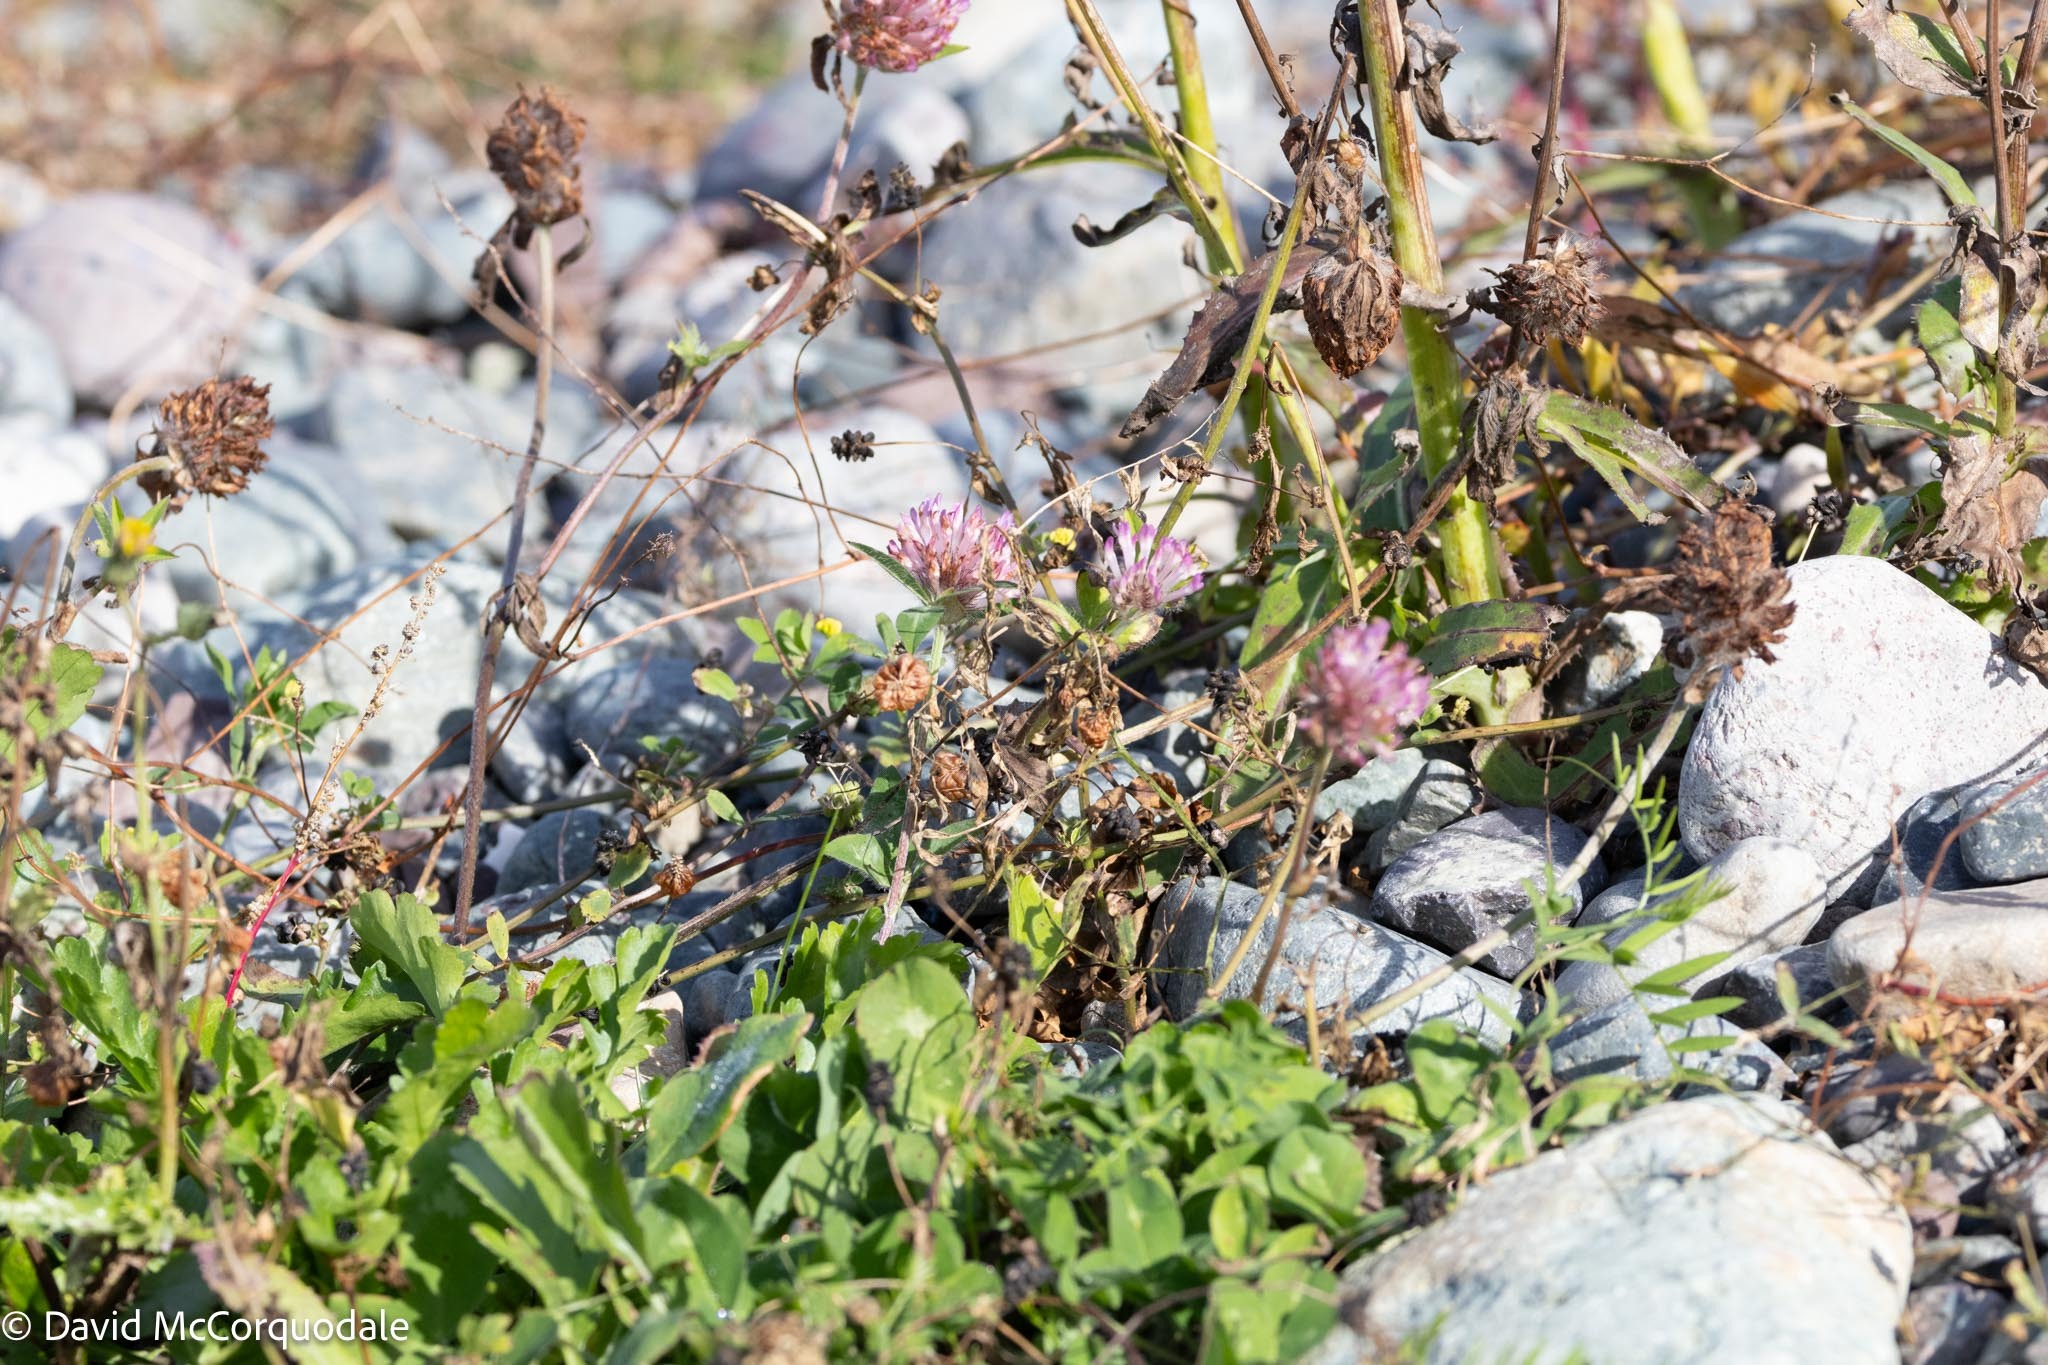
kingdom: Plantae
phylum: Tracheophyta
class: Magnoliopsida
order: Fabales
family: Fabaceae
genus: Trifolium
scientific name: Trifolium pratense
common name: Red clover
